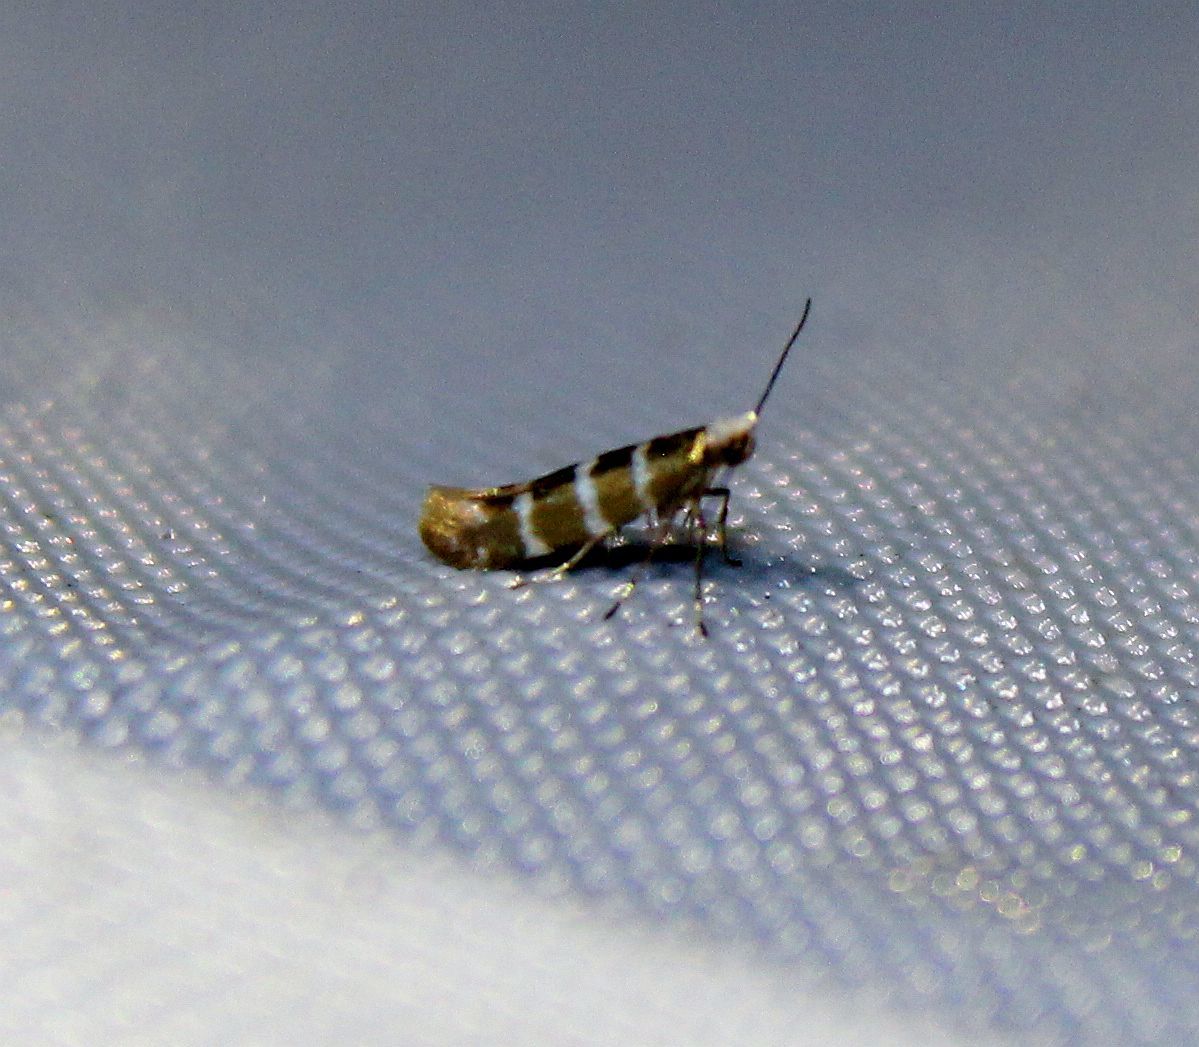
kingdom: Animalia
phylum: Arthropoda
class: Insecta
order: Lepidoptera
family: Argyresthiidae
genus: Argyresthia
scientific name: Argyresthia trifasciata
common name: Triple-barred argent
